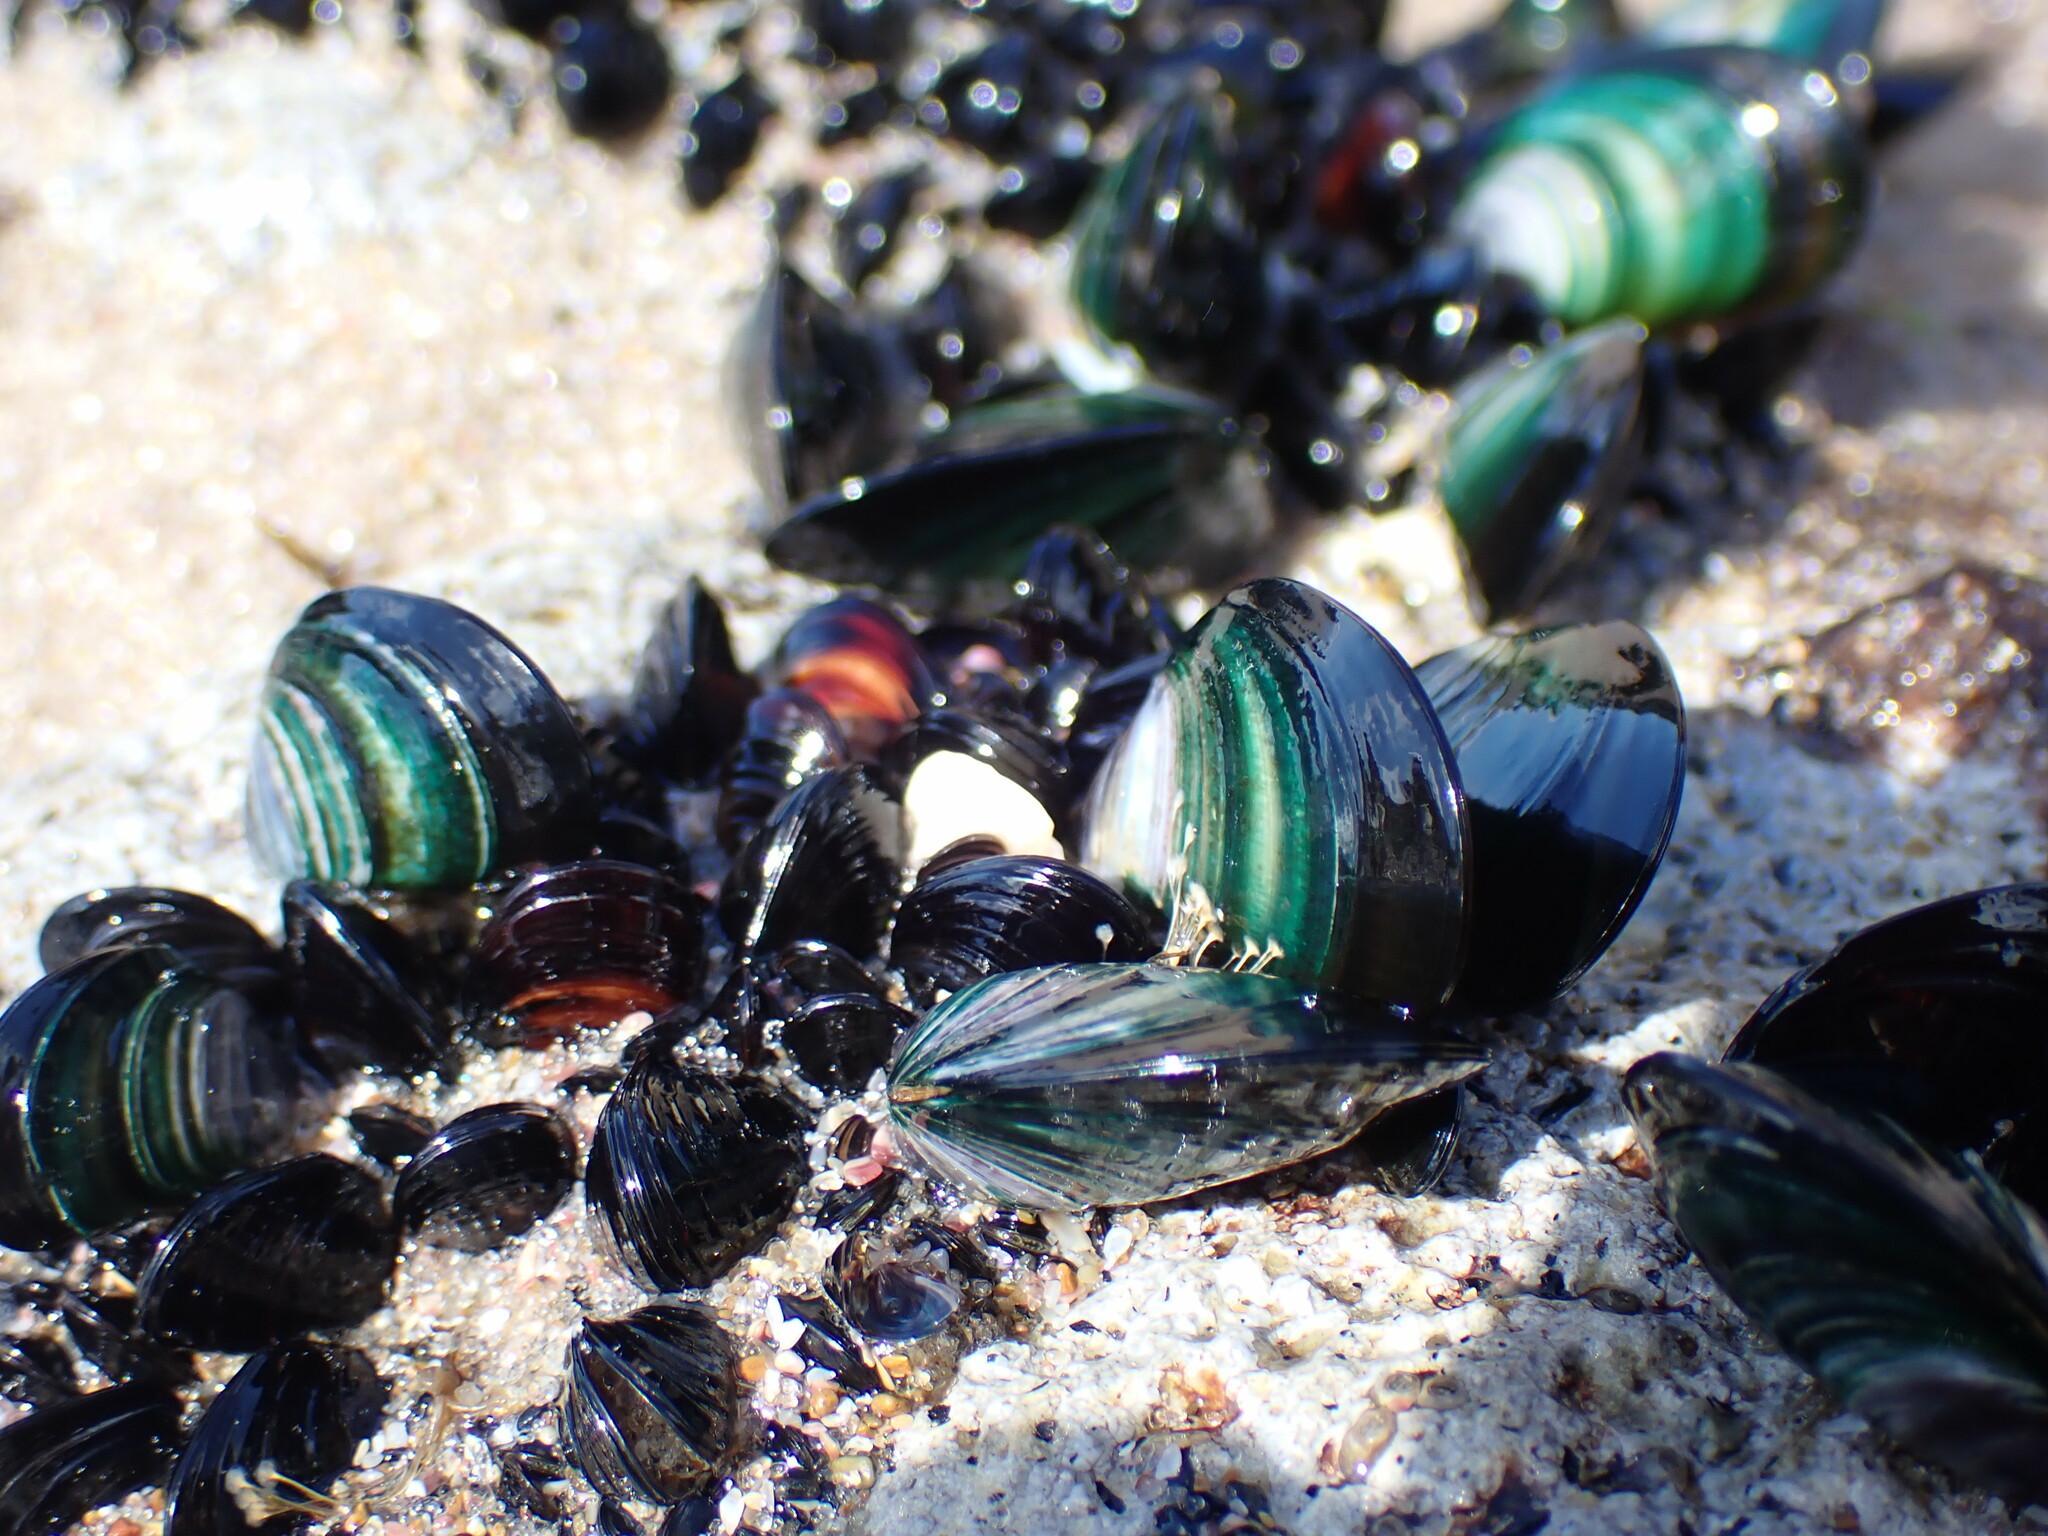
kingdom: Animalia
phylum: Mollusca
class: Bivalvia
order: Mytilida
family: Mytilidae
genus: Perna
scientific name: Perna canaliculus
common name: New zealand greenshelltm
